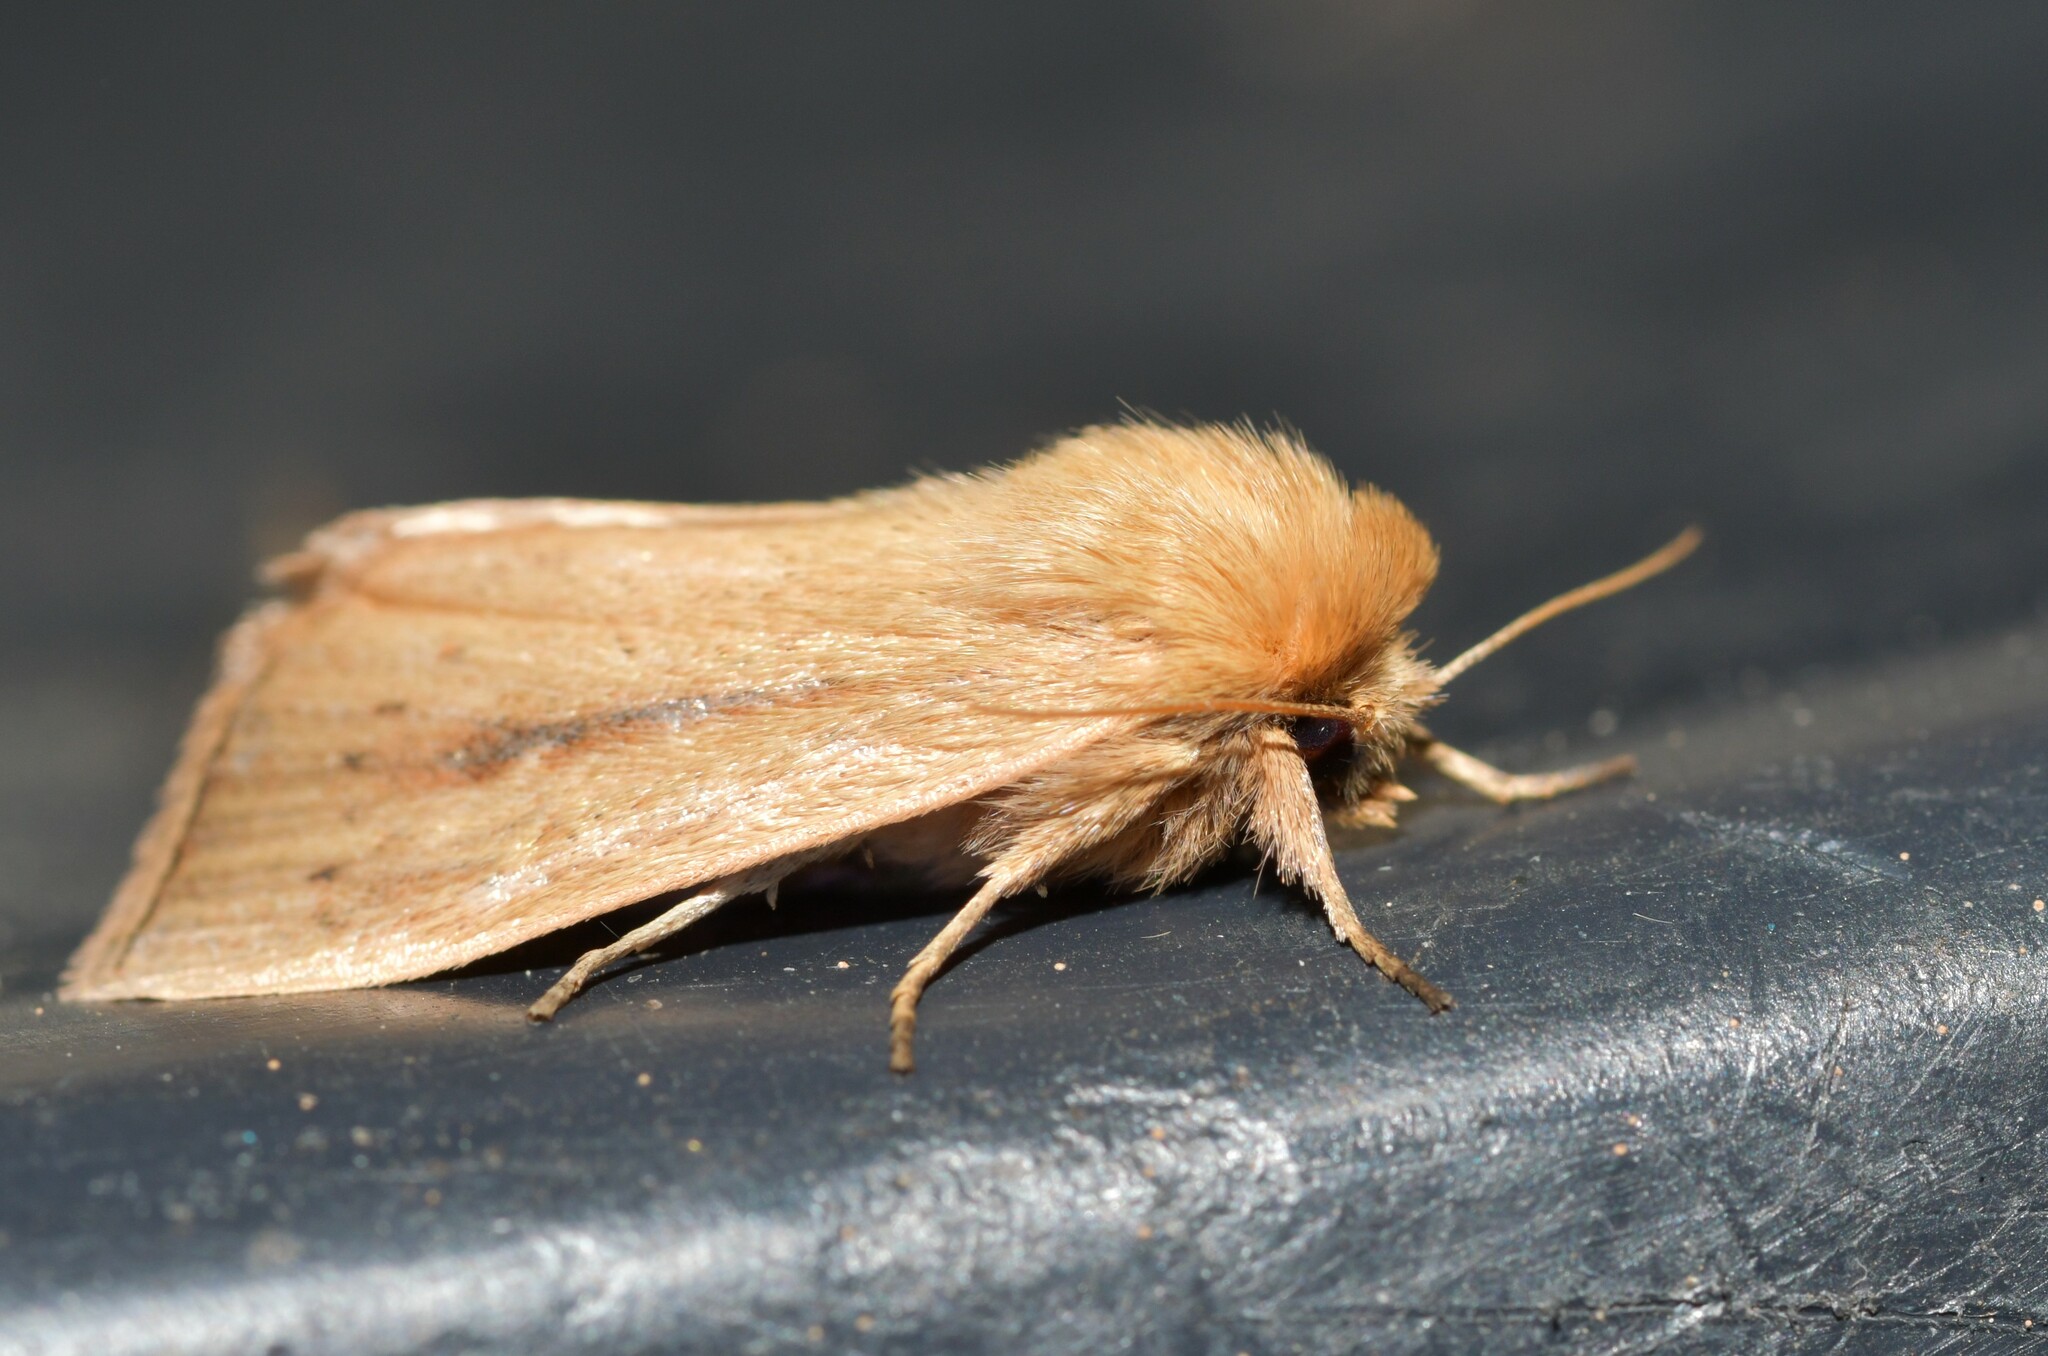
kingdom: Animalia
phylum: Arthropoda
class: Insecta
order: Lepidoptera
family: Noctuidae
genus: Sesamia
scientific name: Sesamia nonagrioides
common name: Pink stem borer
